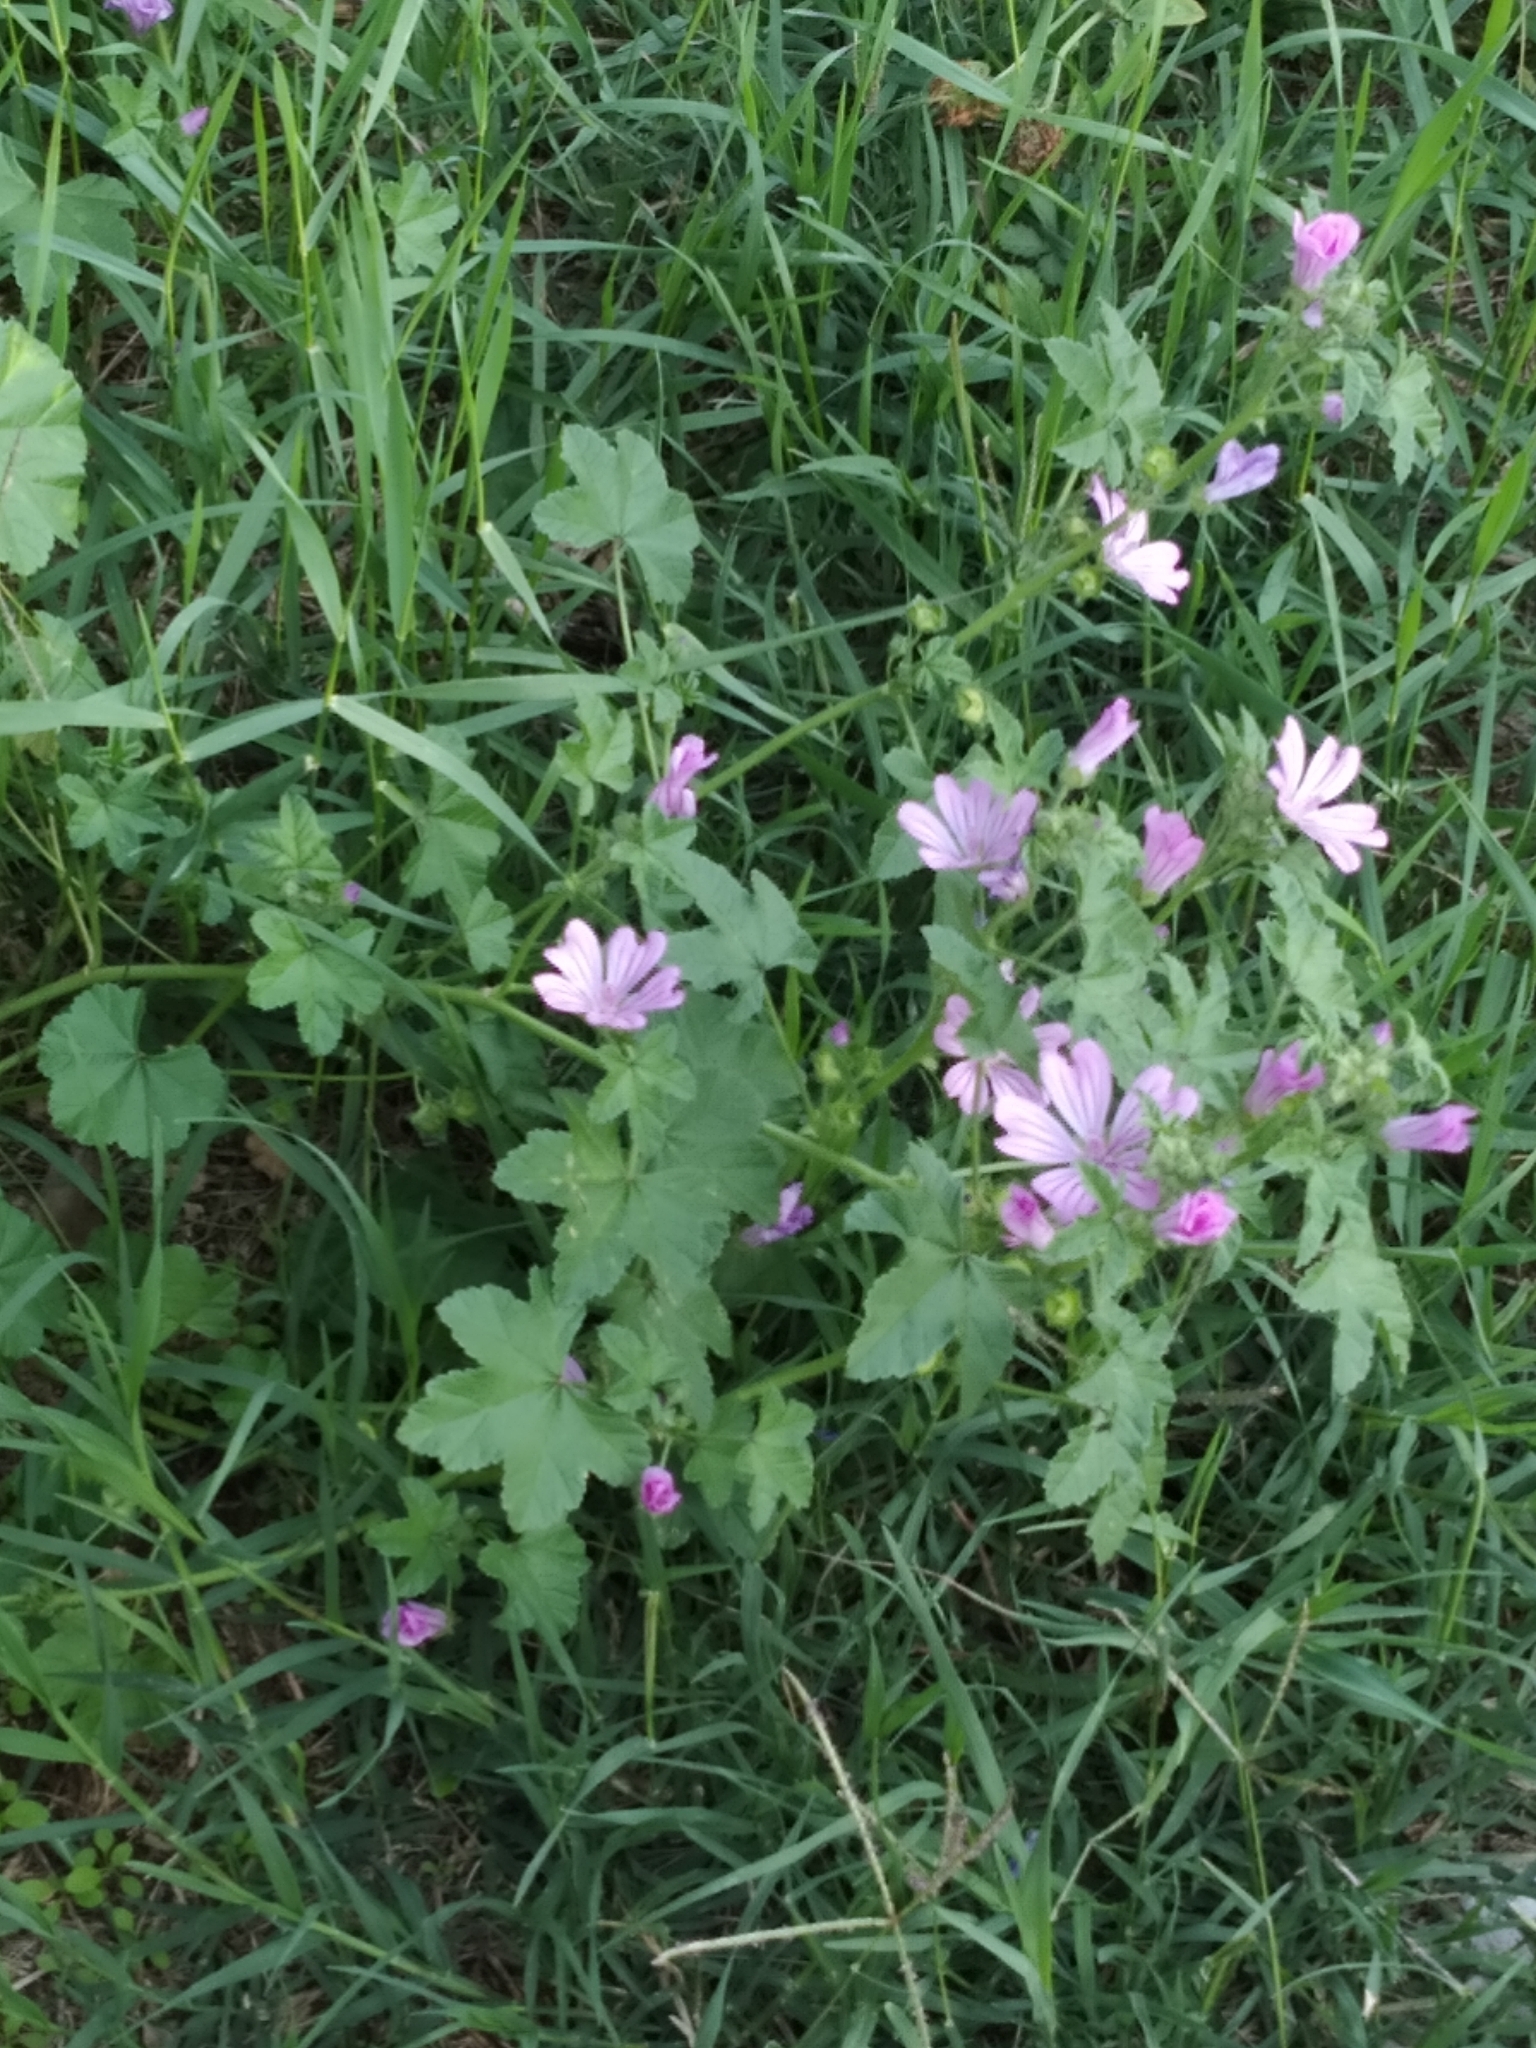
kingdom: Plantae
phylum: Tracheophyta
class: Magnoliopsida
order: Malvales
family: Malvaceae
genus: Malva
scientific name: Malva sylvestris
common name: Common mallow
